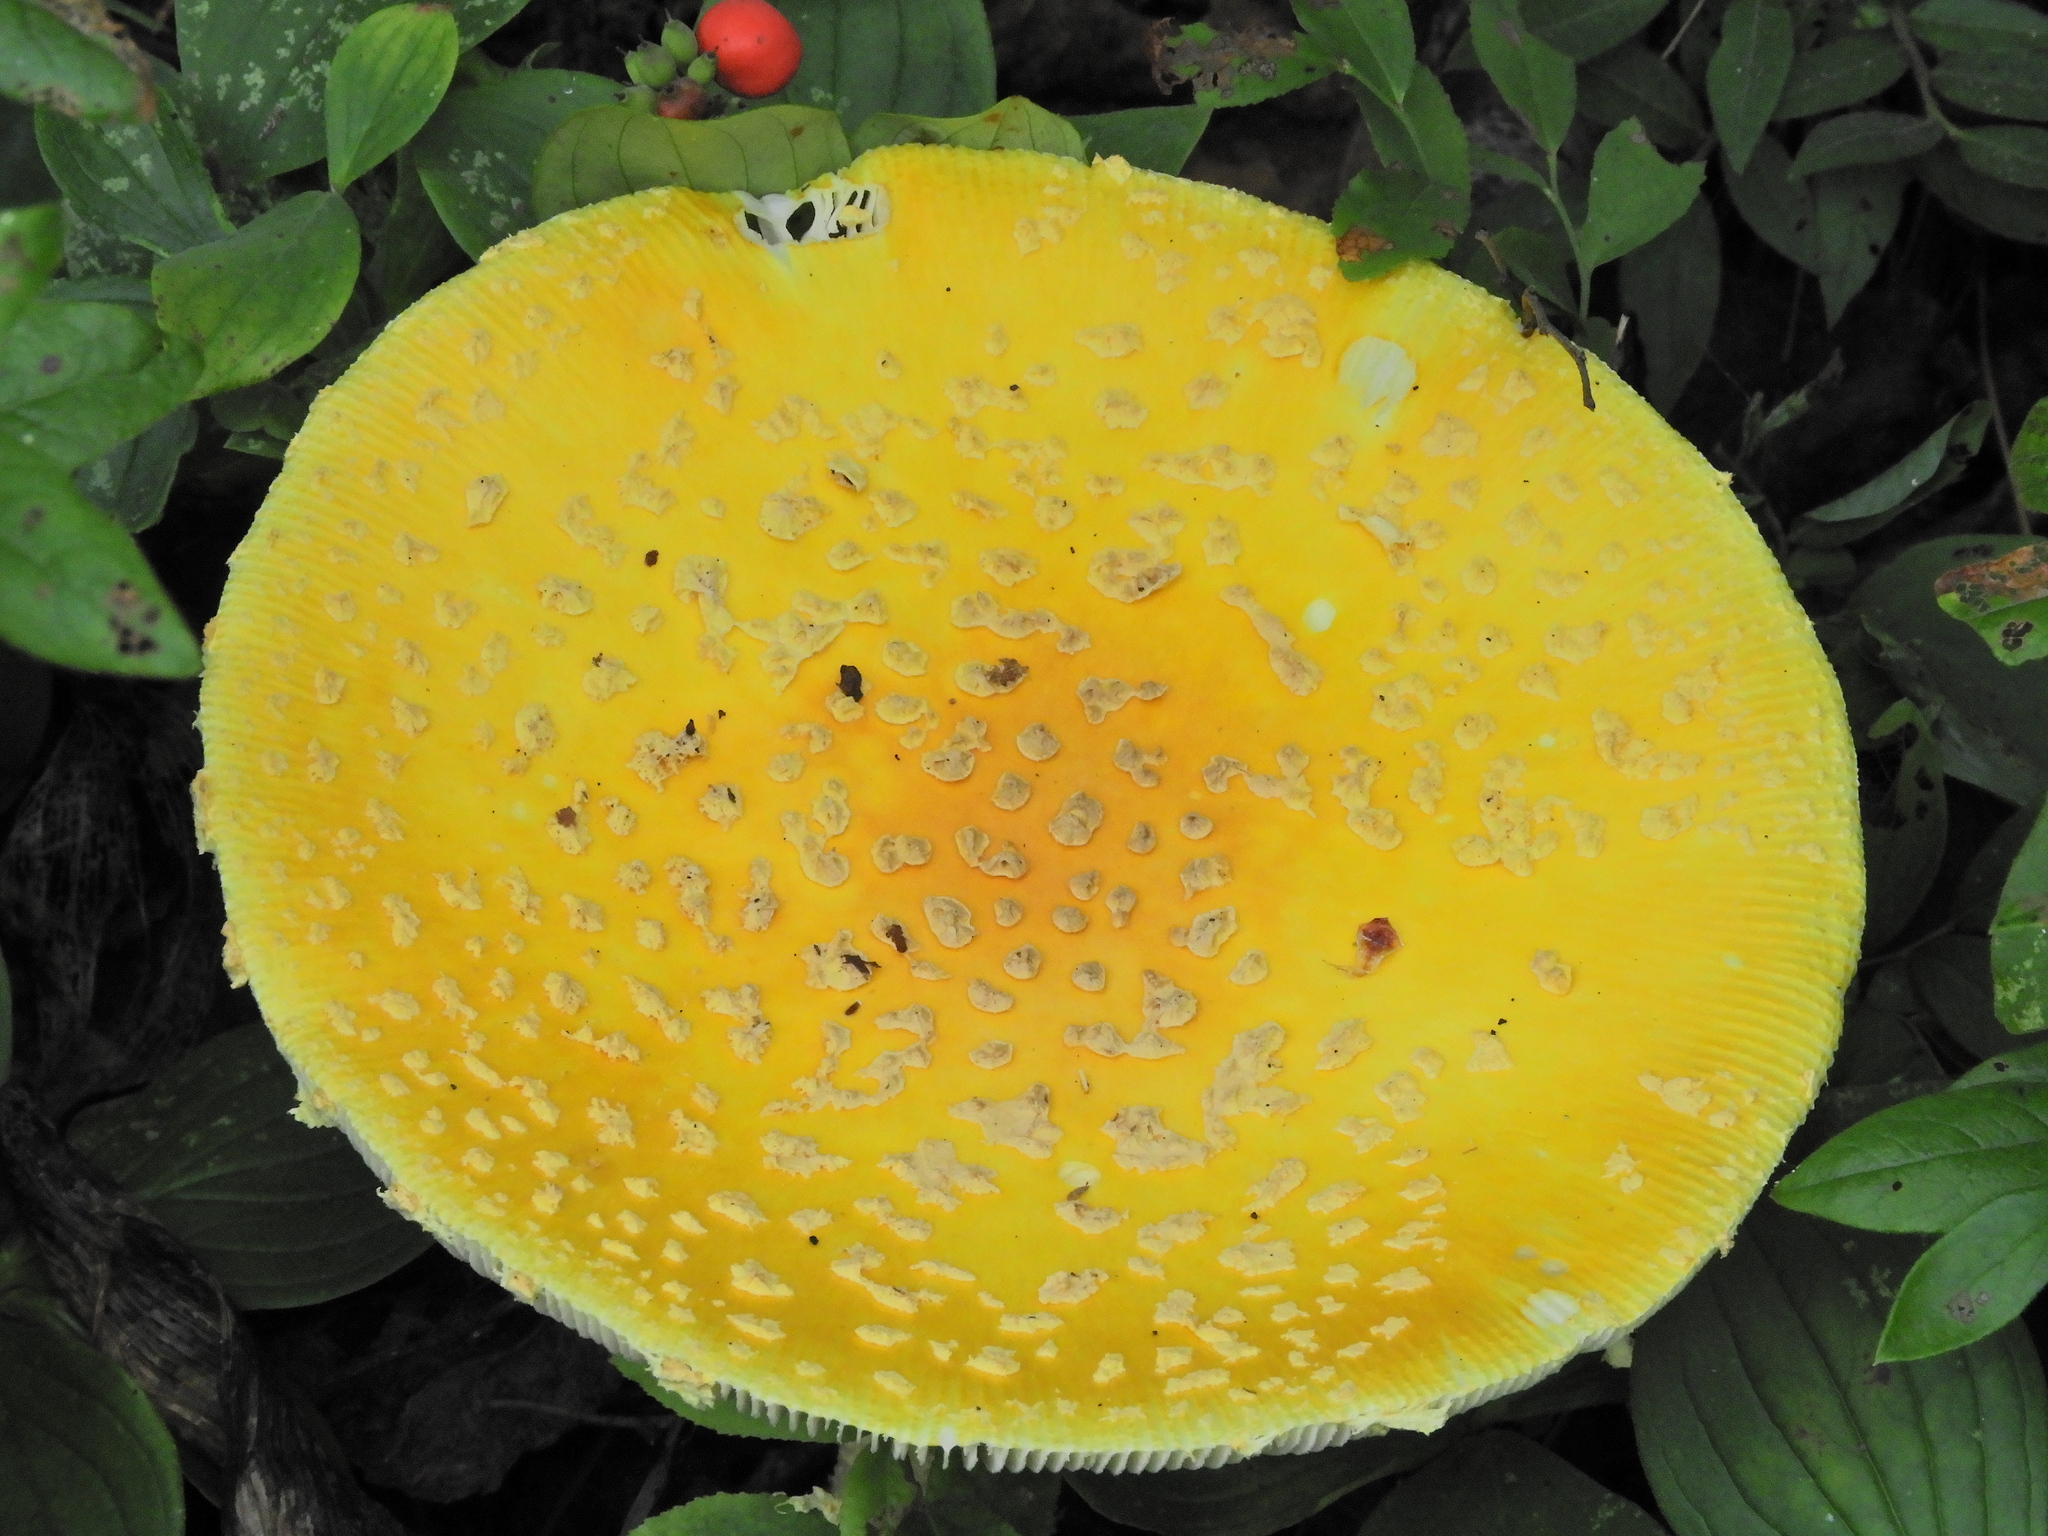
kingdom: Fungi
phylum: Basidiomycota
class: Agaricomycetes
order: Agaricales
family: Amanitaceae
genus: Amanita
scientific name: Amanita muscaria
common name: Fly agaric
